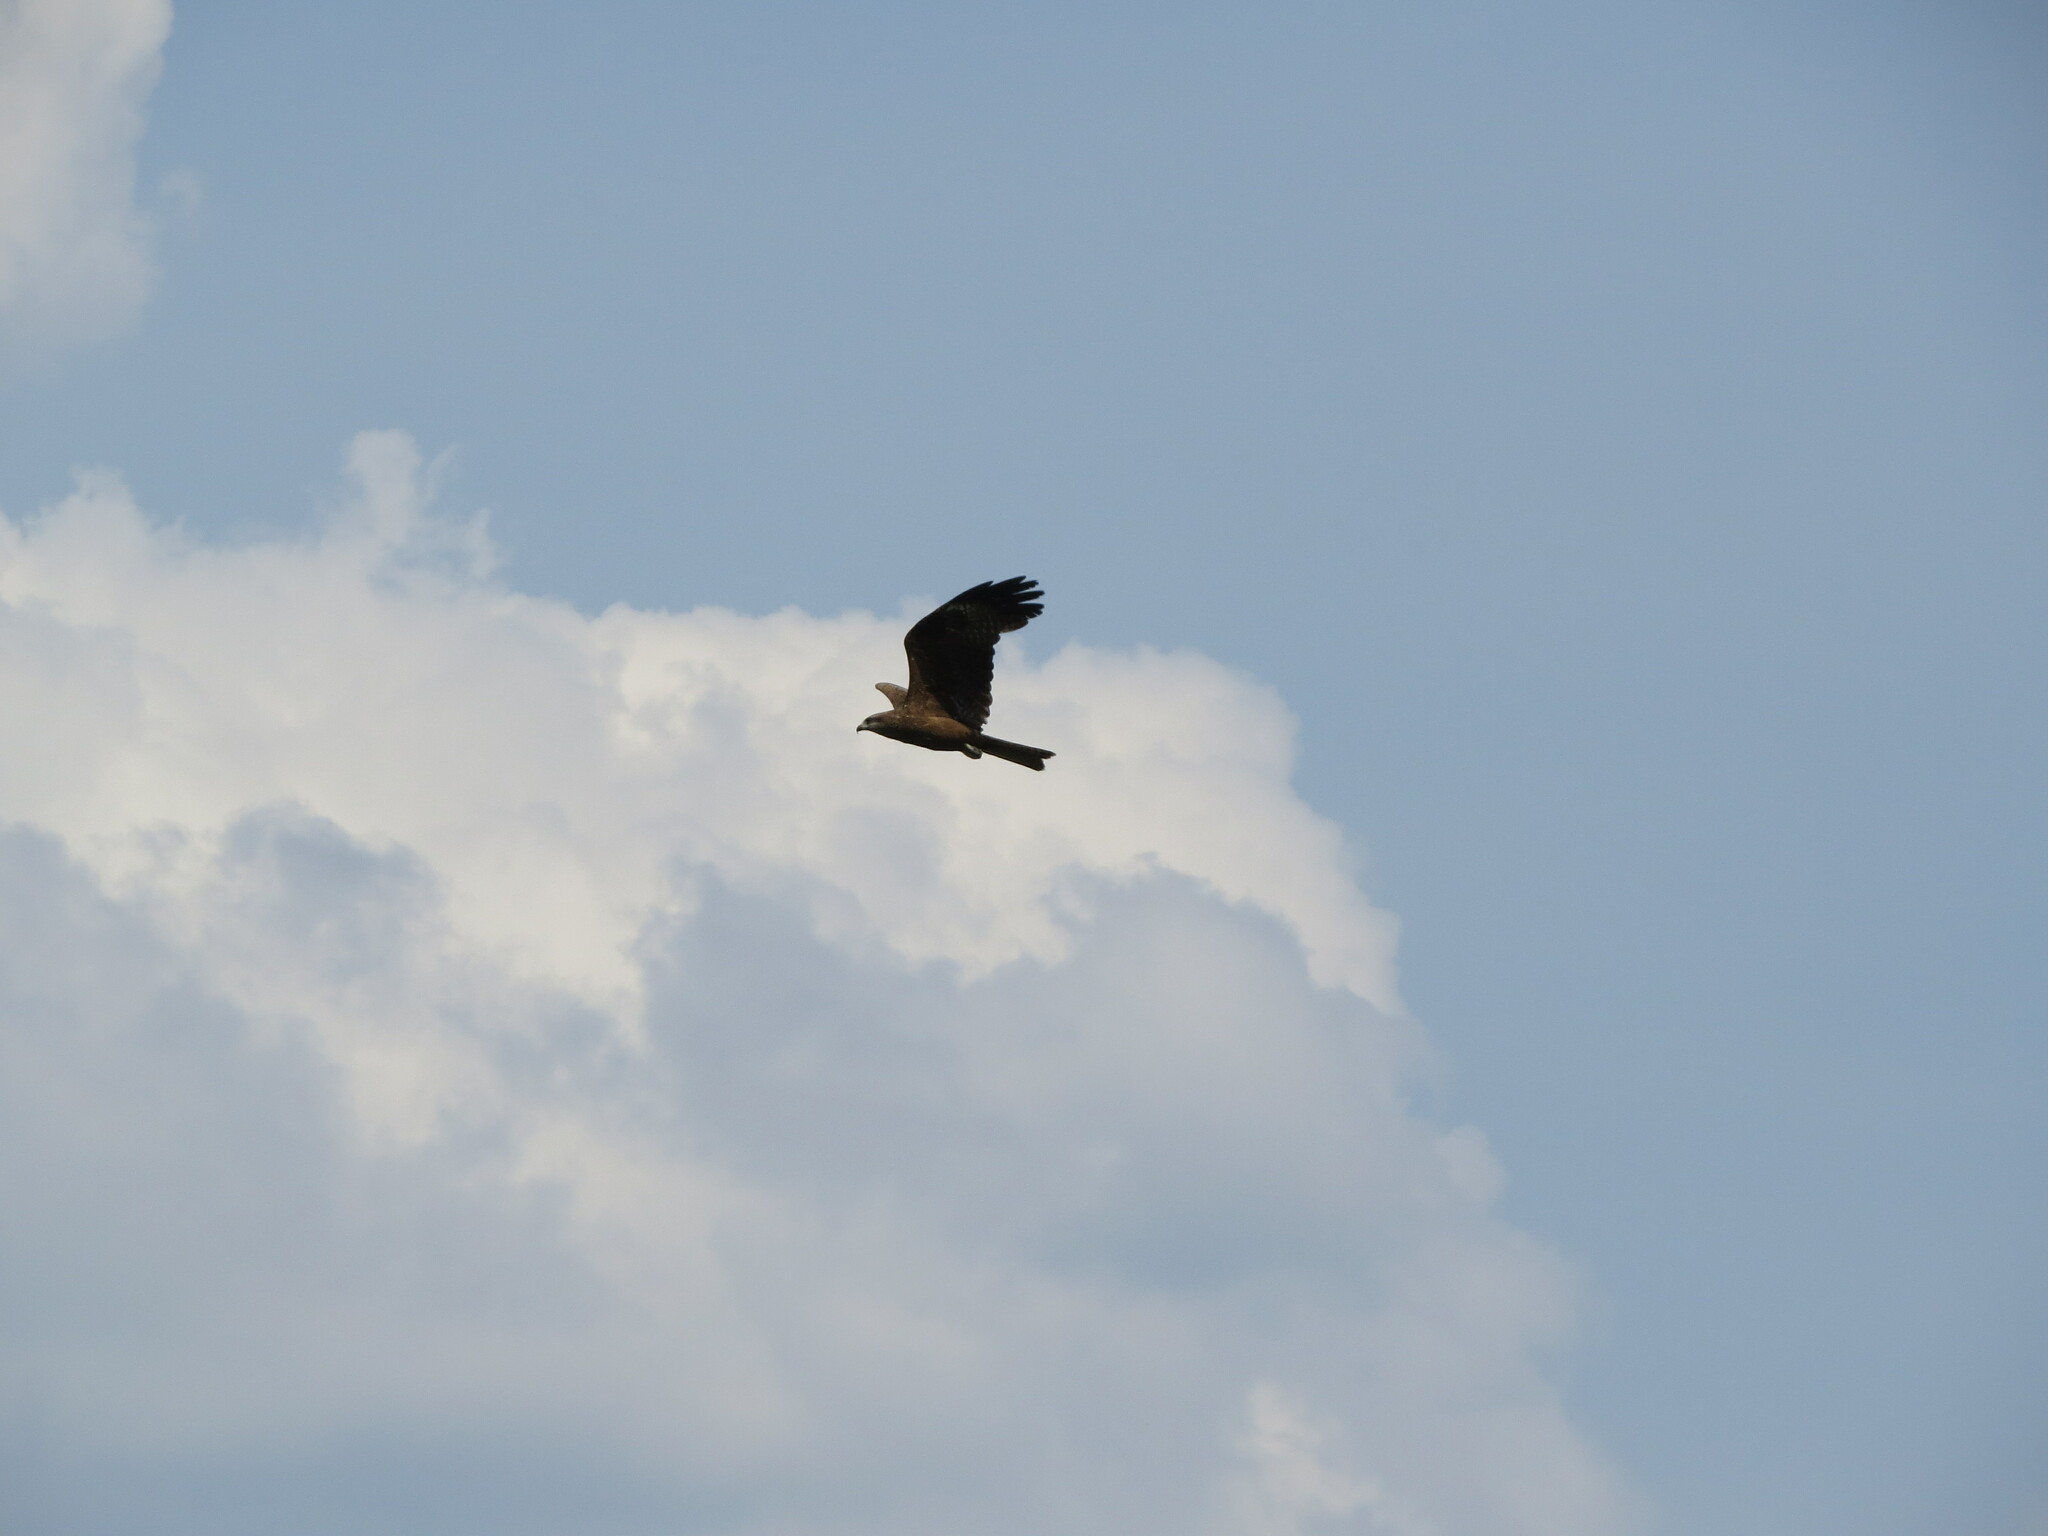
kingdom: Animalia
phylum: Chordata
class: Aves
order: Accipitriformes
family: Accipitridae
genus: Milvus
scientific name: Milvus migrans
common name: Black kite
